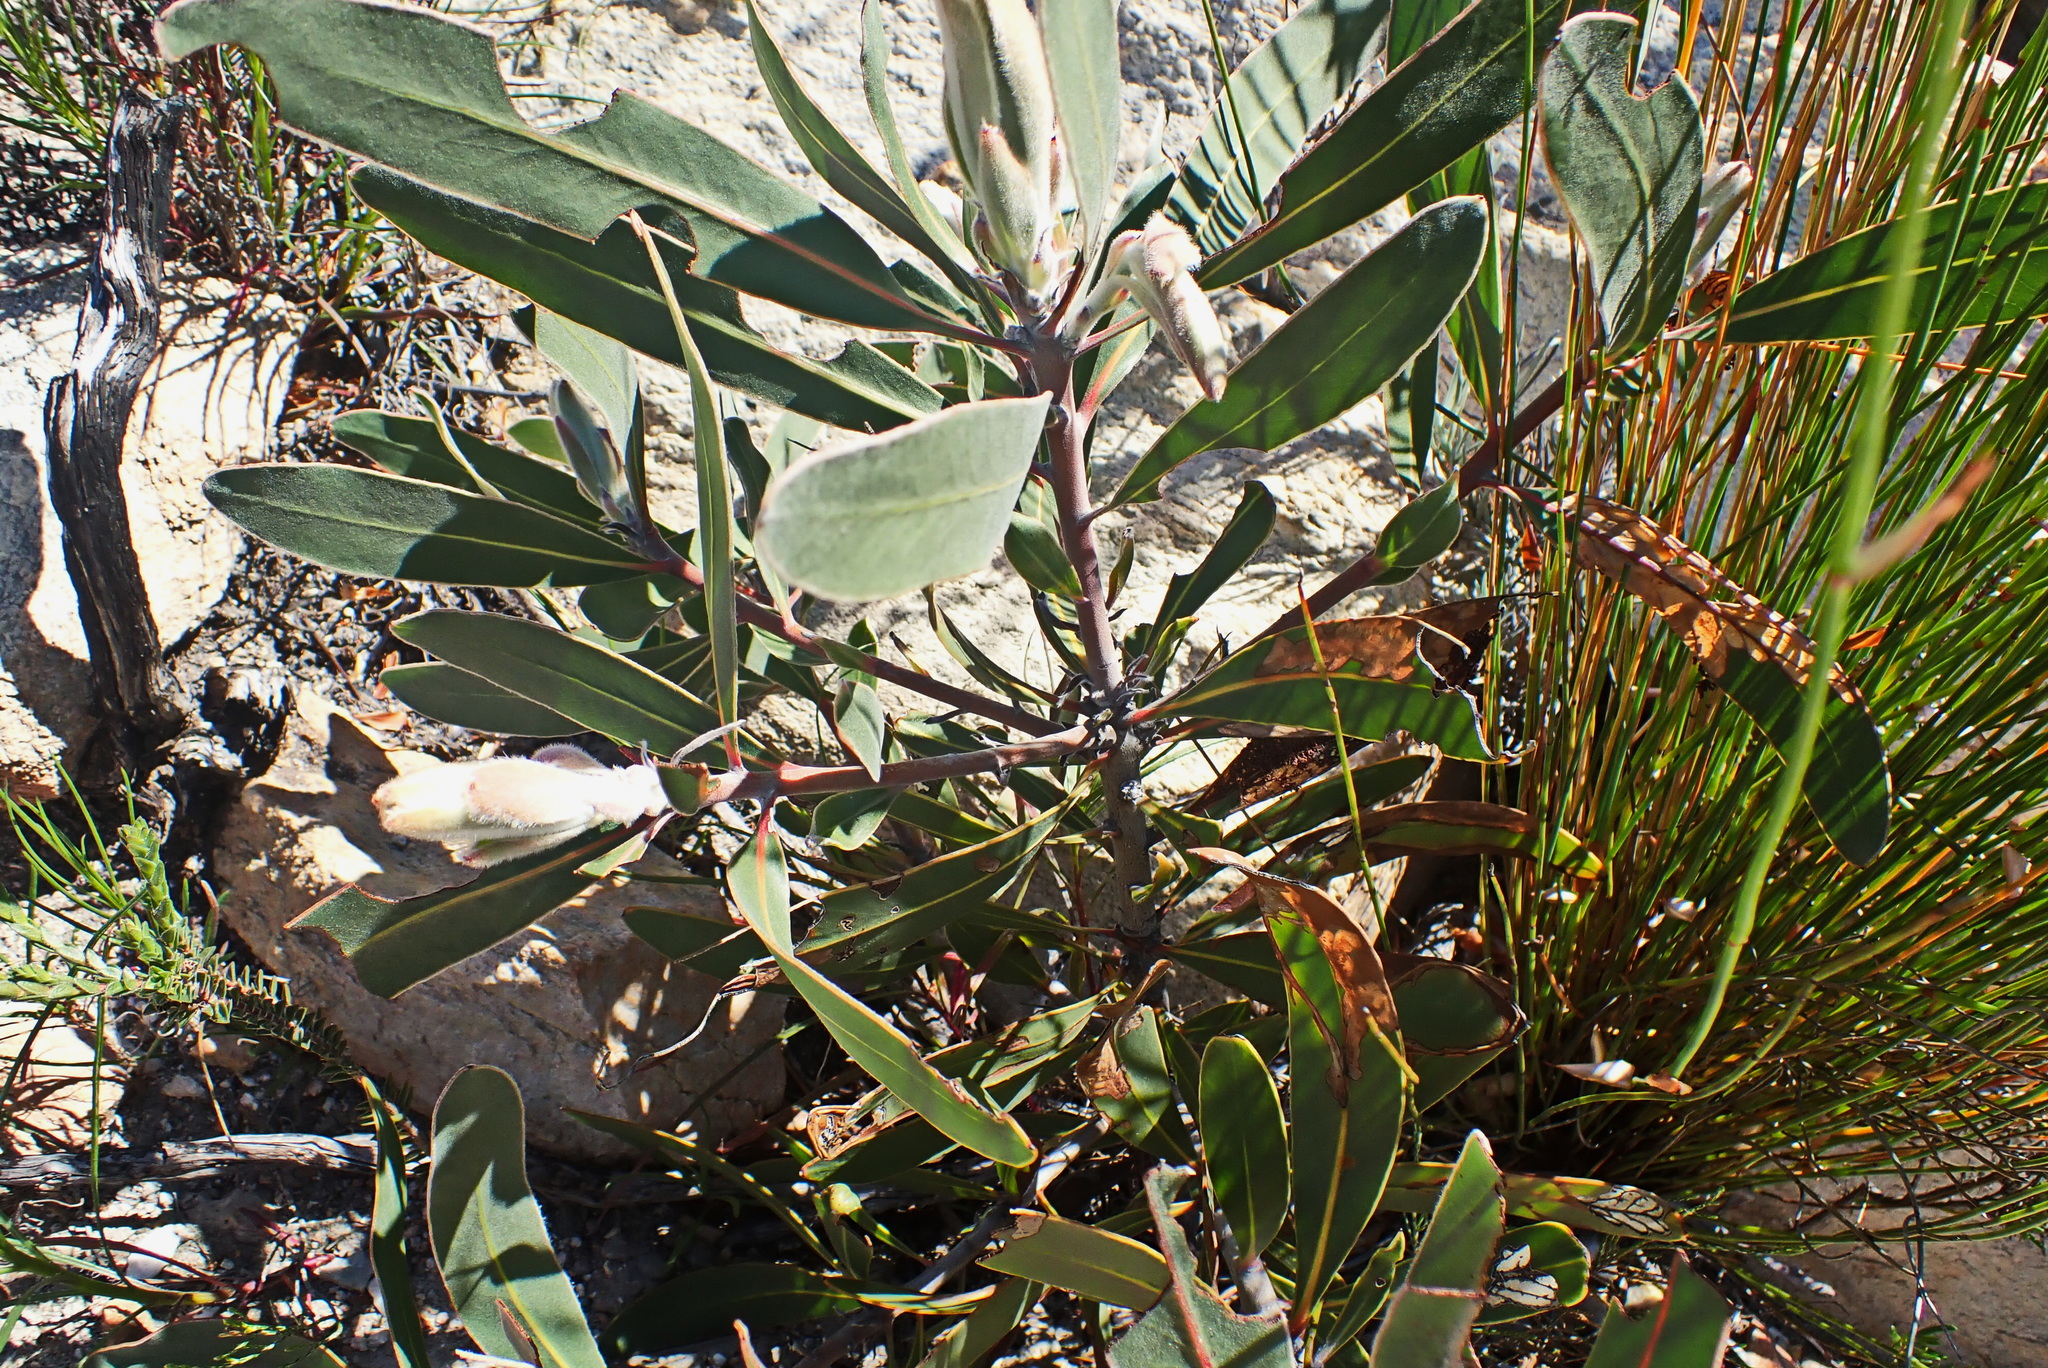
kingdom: Plantae
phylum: Tracheophyta
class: Magnoliopsida
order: Proteales
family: Proteaceae
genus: Protea
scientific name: Protea lorifolia
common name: Strap-leaved protea
